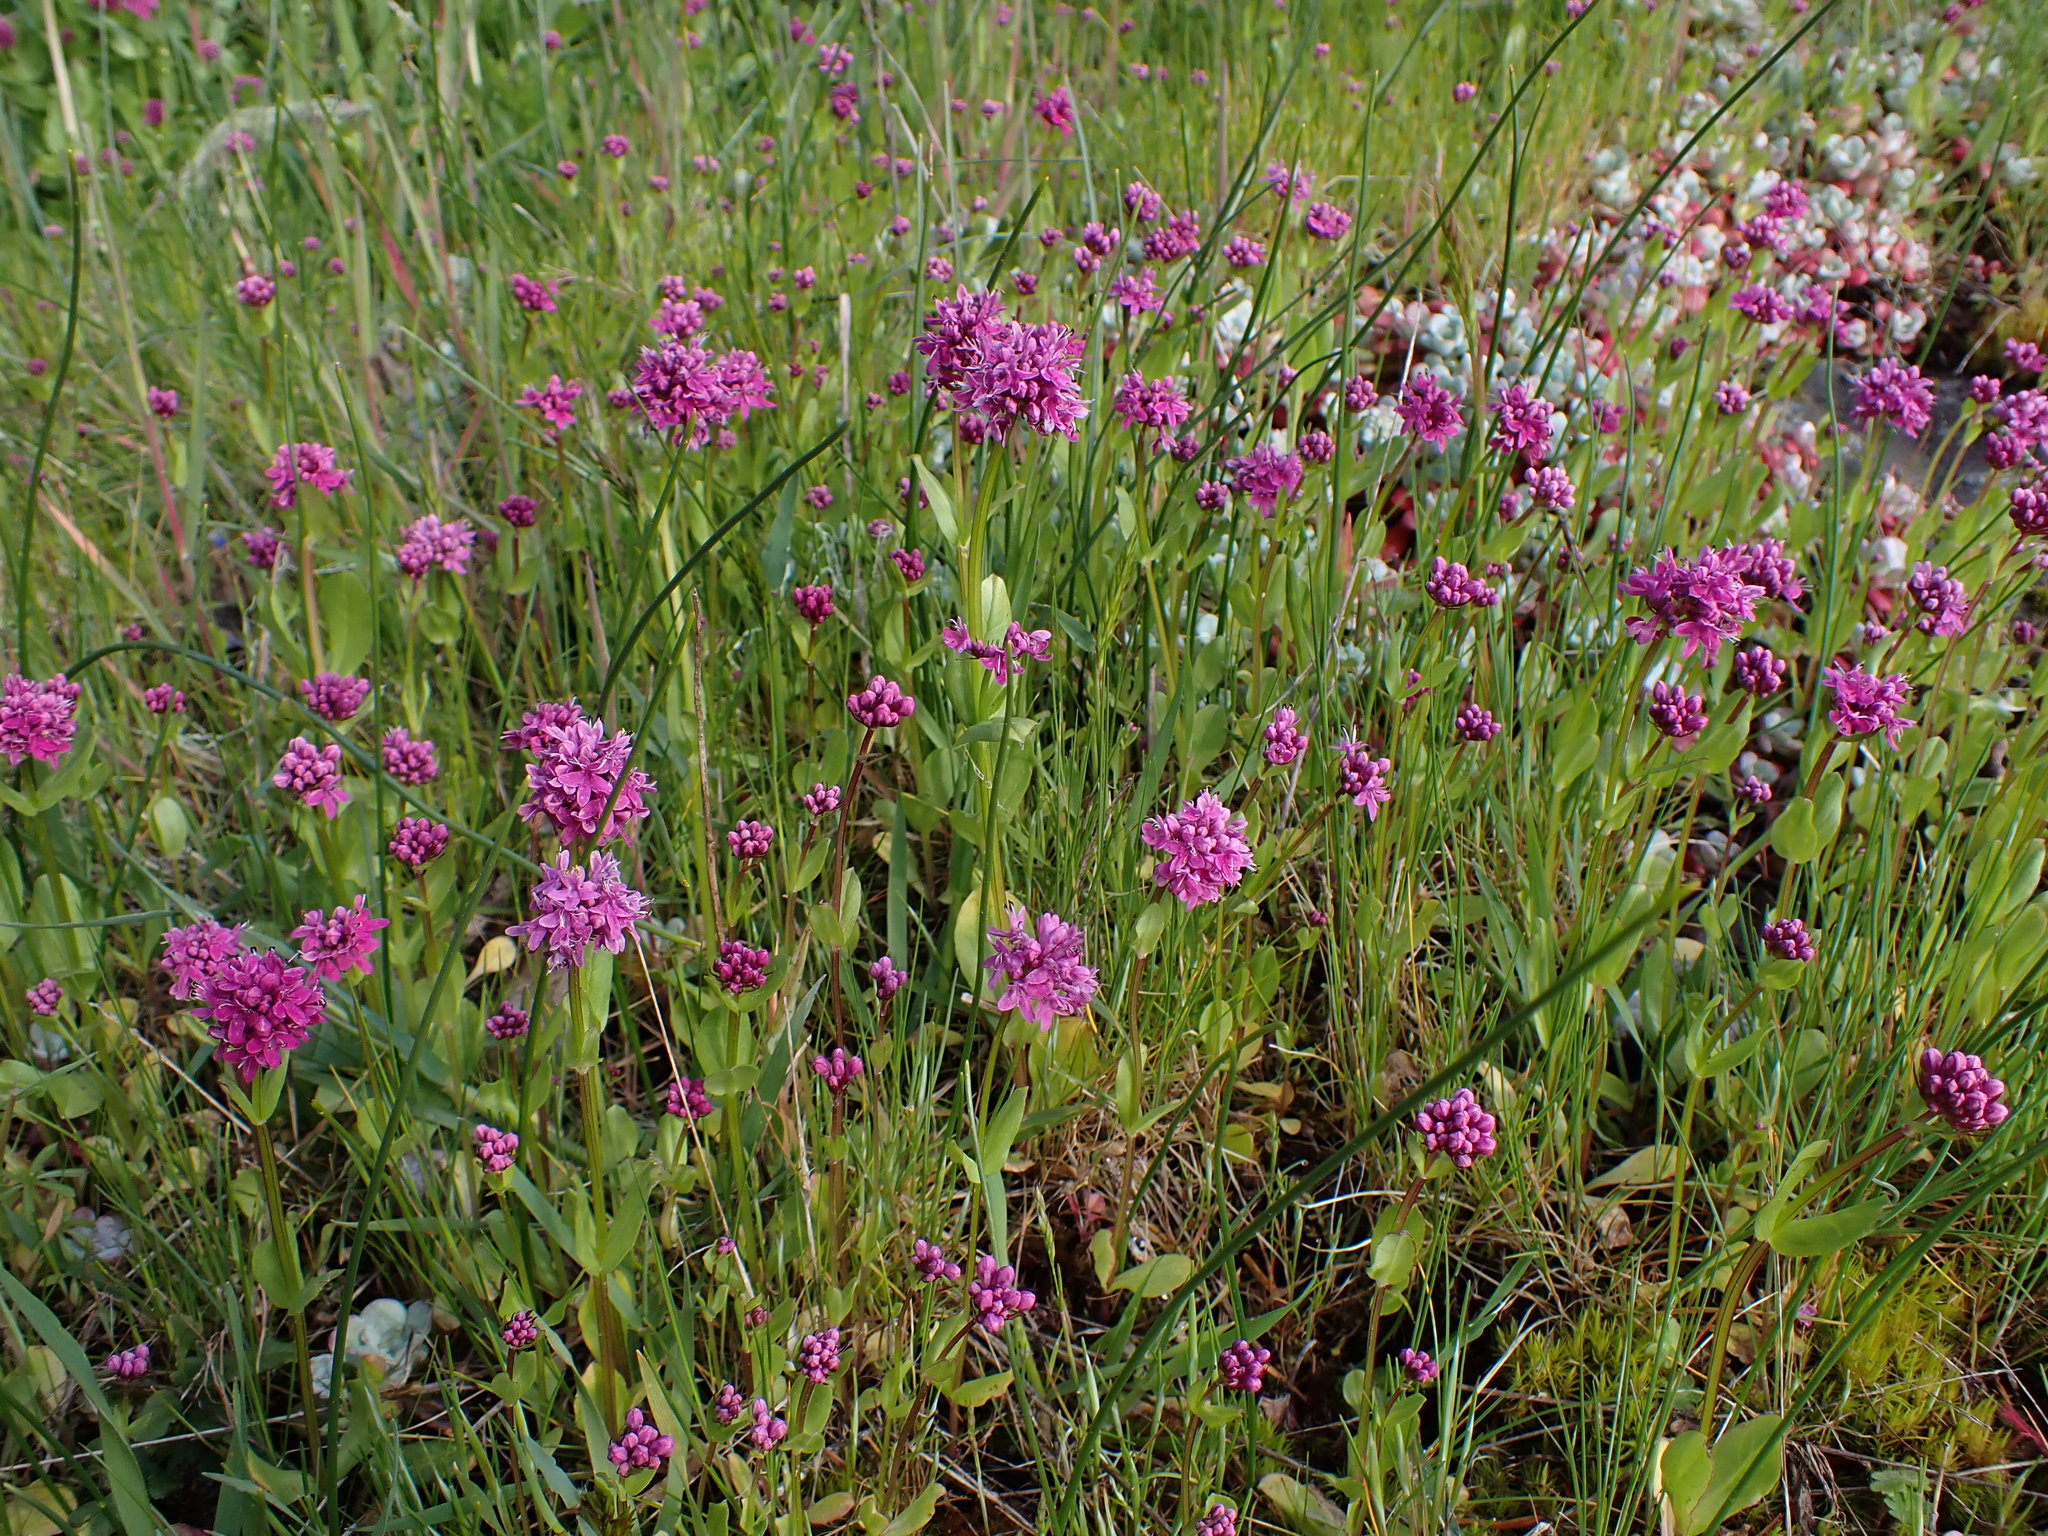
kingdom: Plantae
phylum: Tracheophyta
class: Magnoliopsida
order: Dipsacales
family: Caprifoliaceae
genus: Plectritis
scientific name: Plectritis congesta
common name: Pink plectritis
